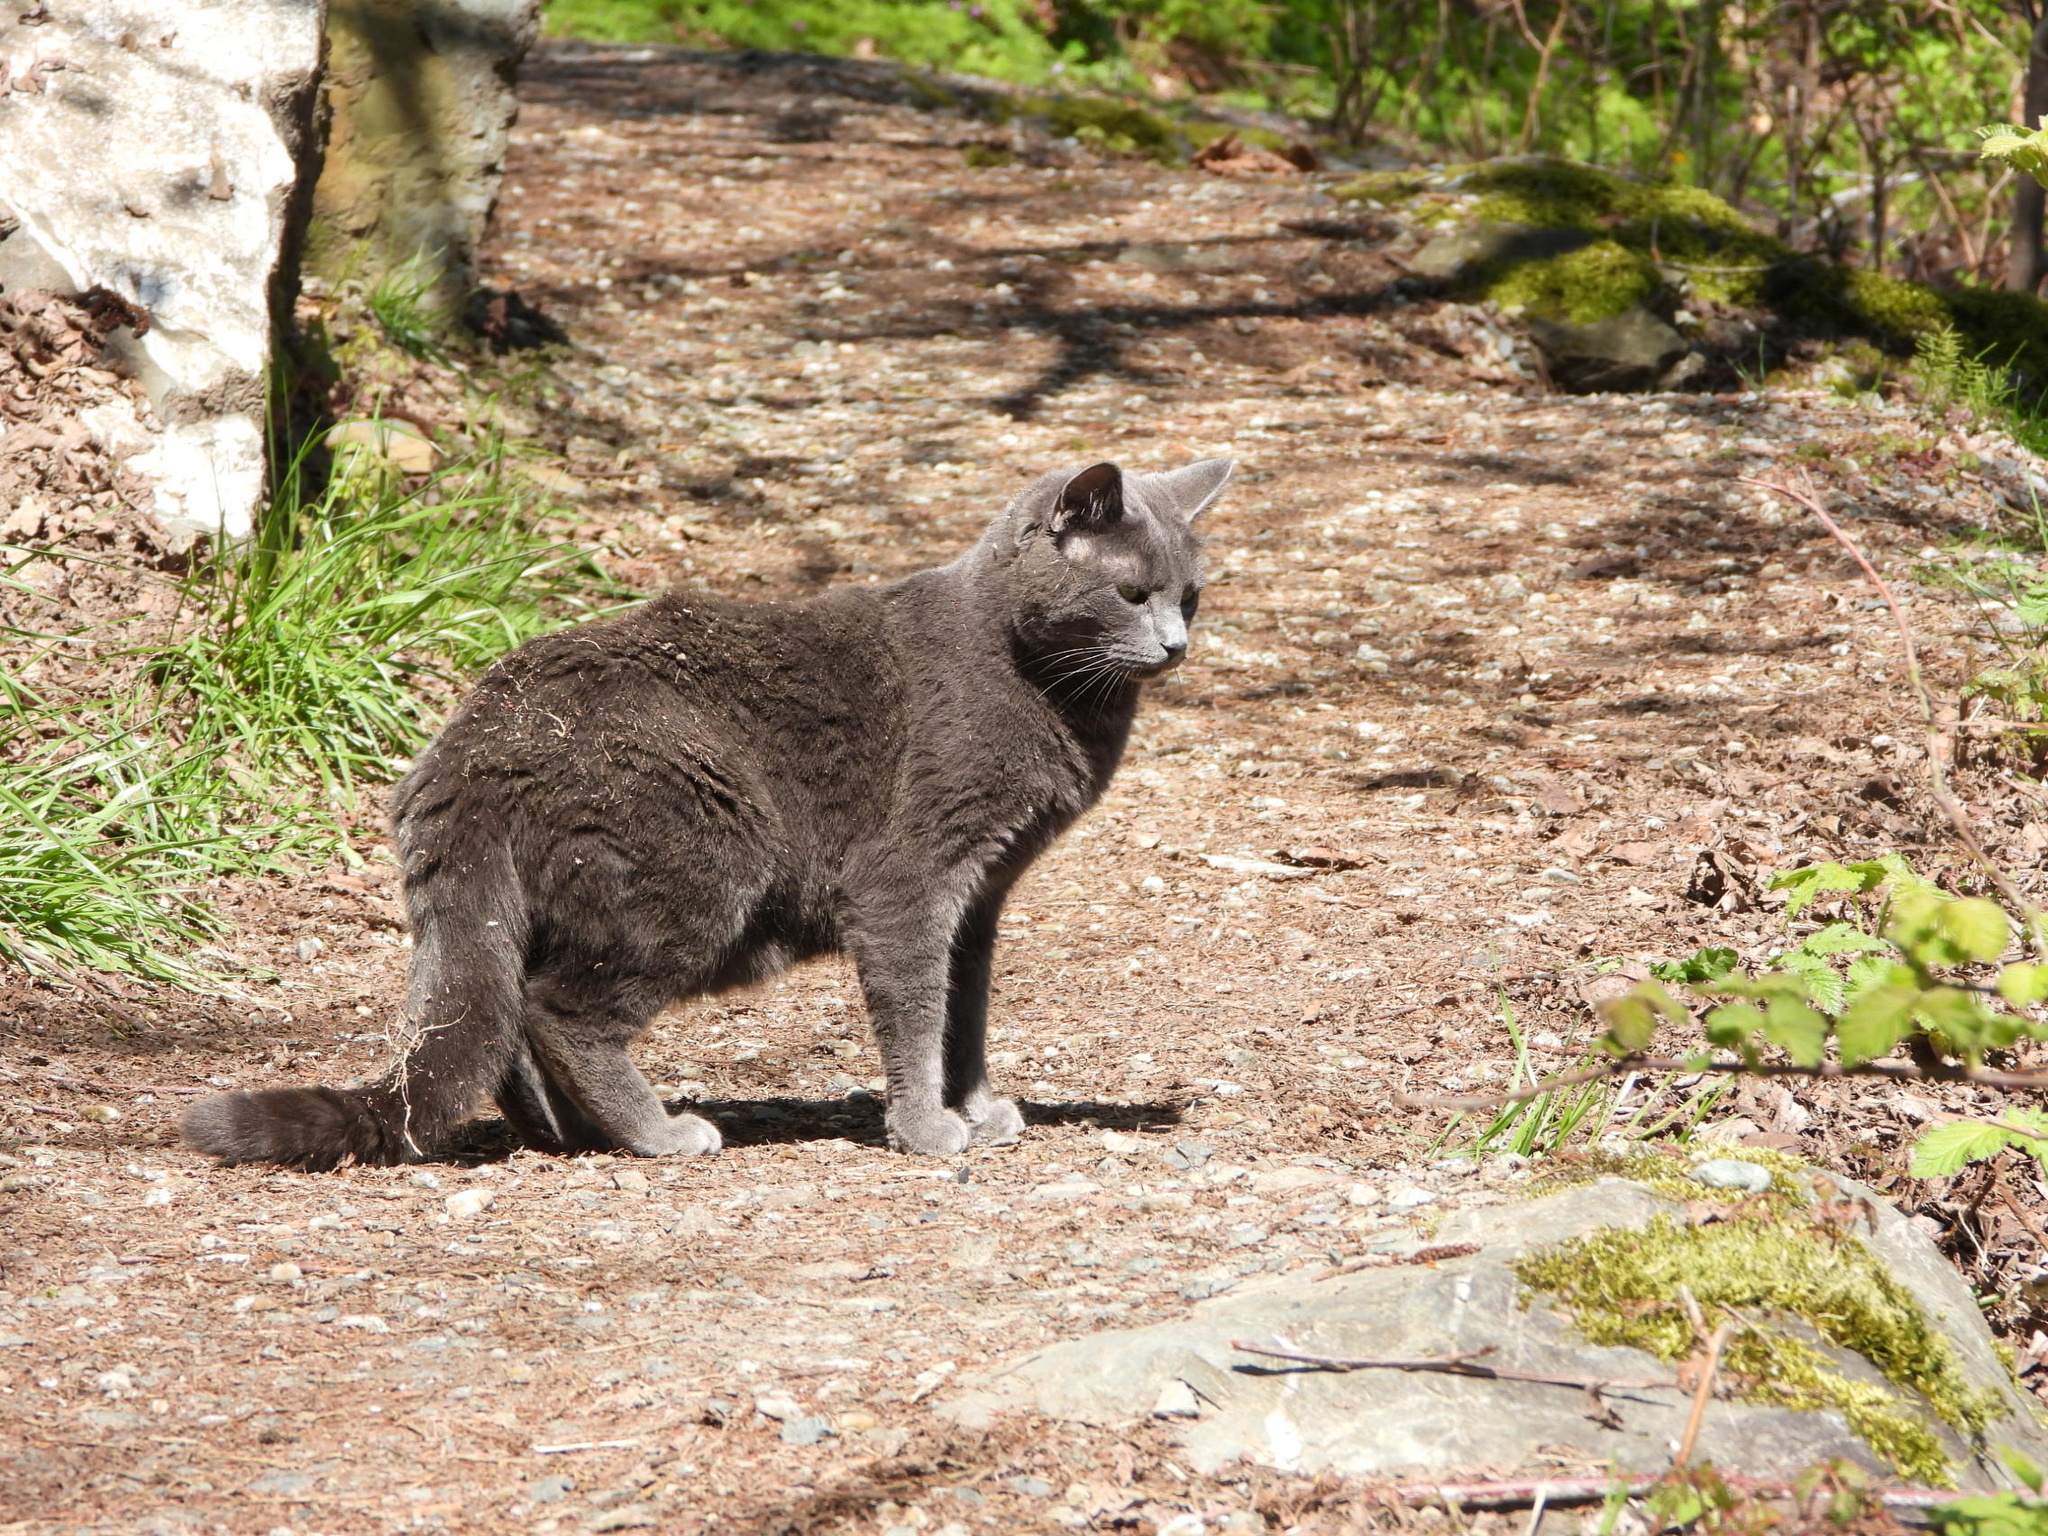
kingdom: Animalia
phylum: Chordata
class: Mammalia
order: Carnivora
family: Felidae
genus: Felis
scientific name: Felis catus
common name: Domestic cat
